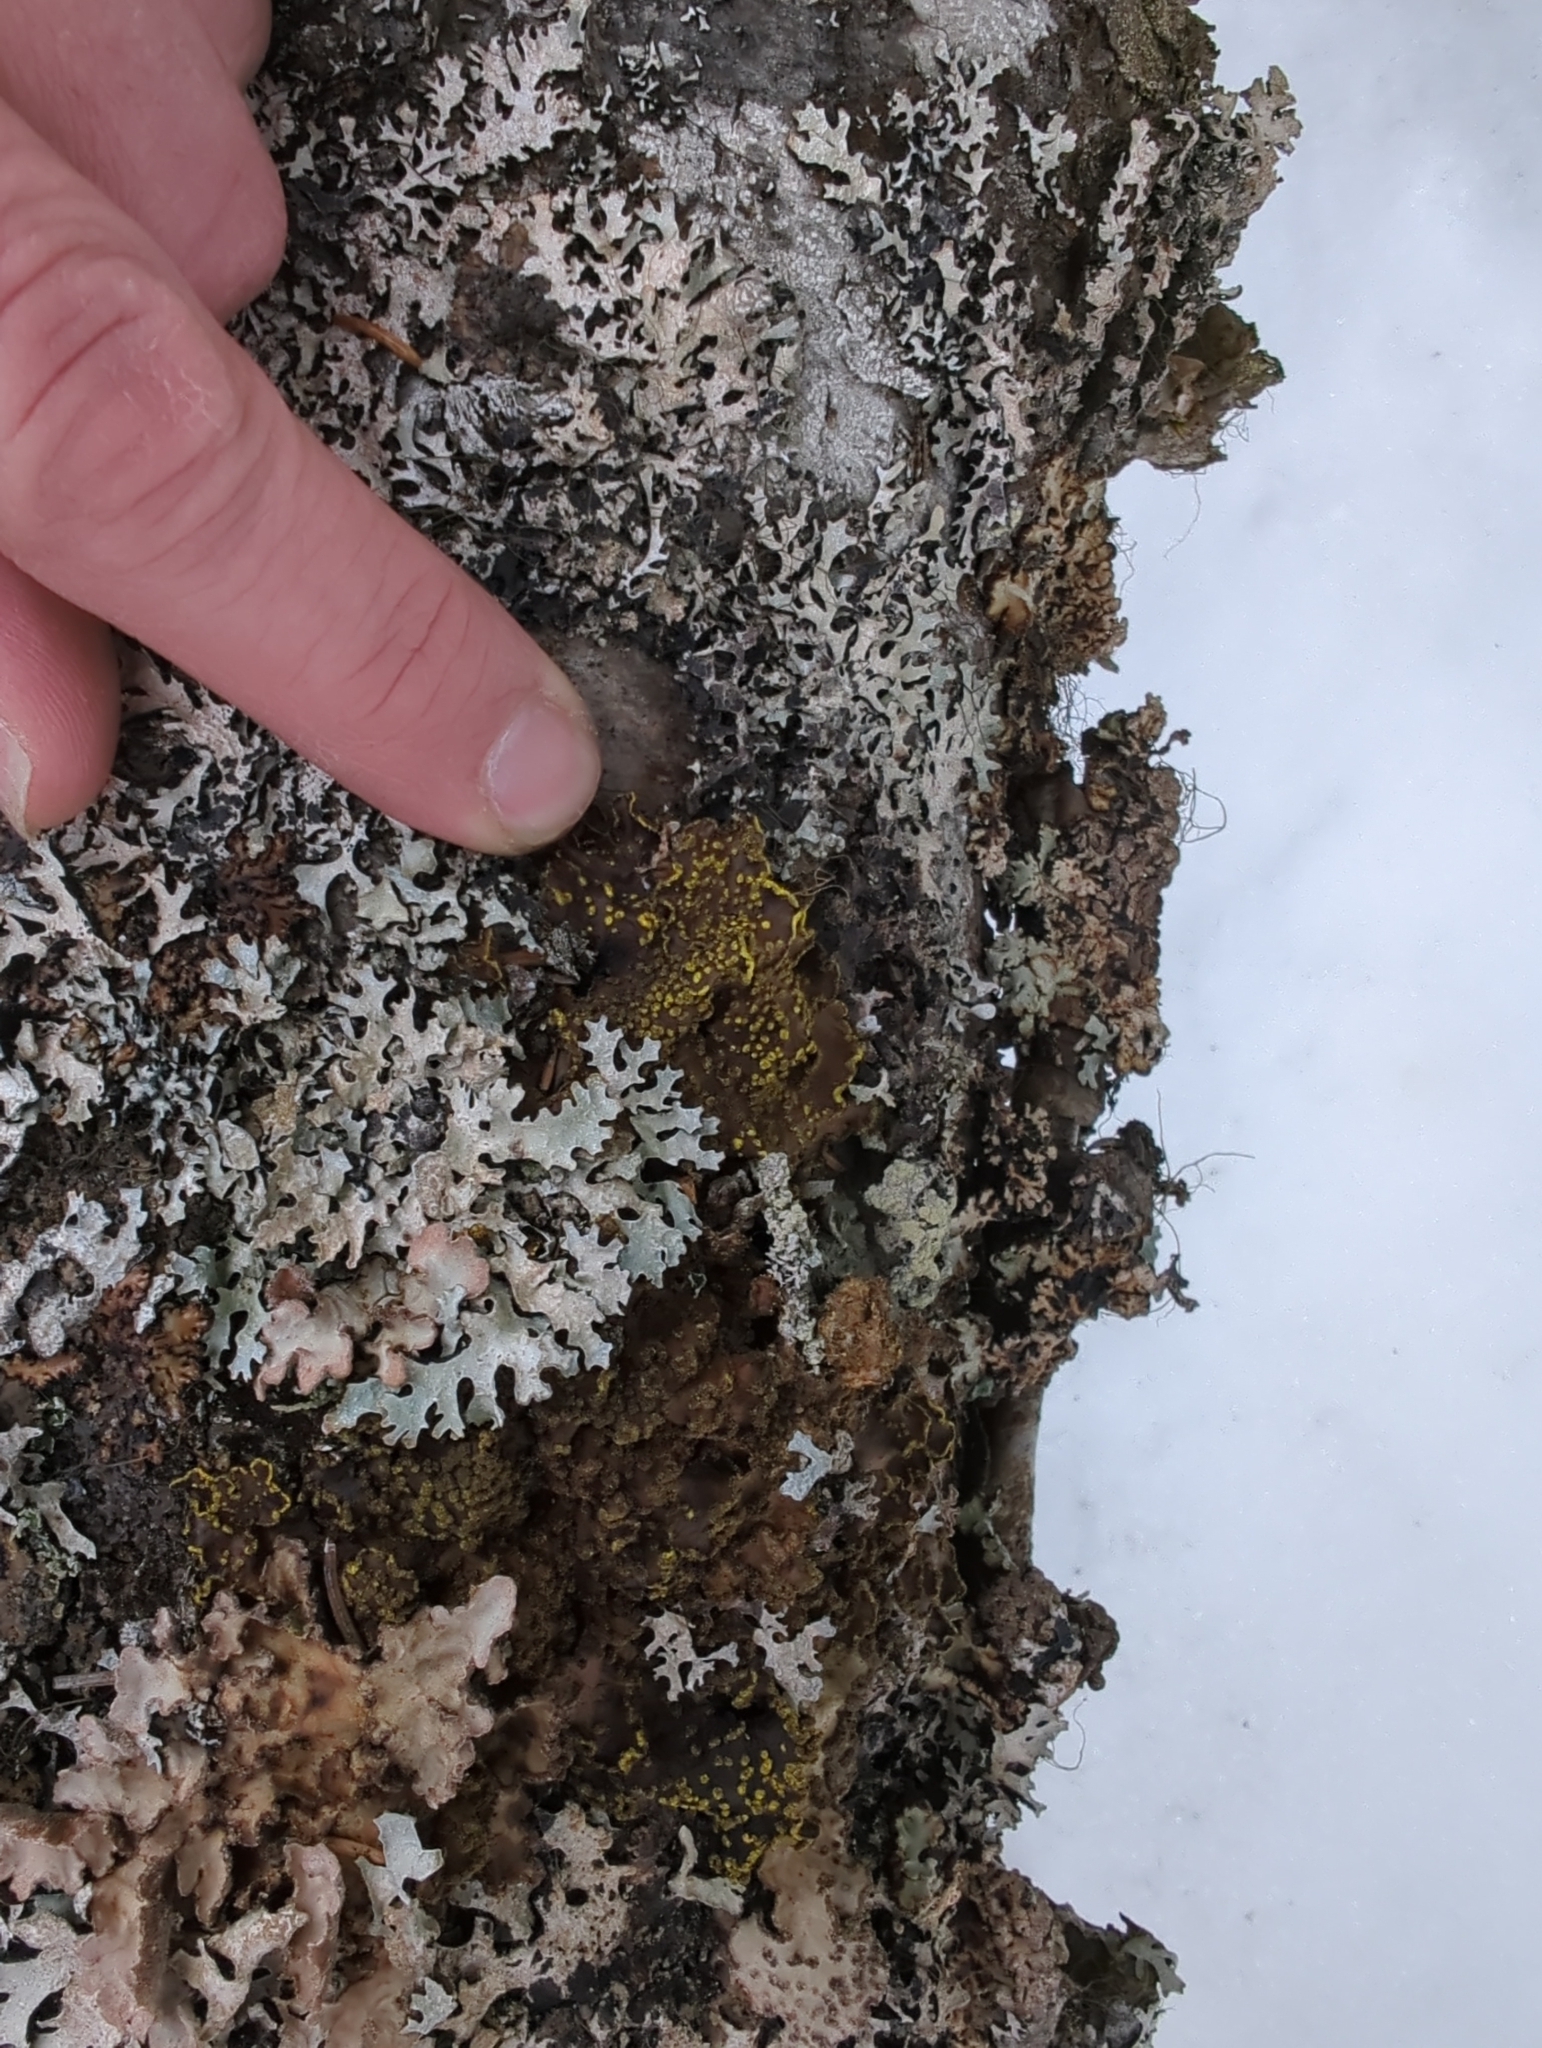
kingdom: Fungi
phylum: Ascomycota
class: Lecanoromycetes
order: Peltigerales
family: Lobariaceae
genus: Pseudocyphellaria
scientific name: Pseudocyphellaria crocata
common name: Golden specklebelly
